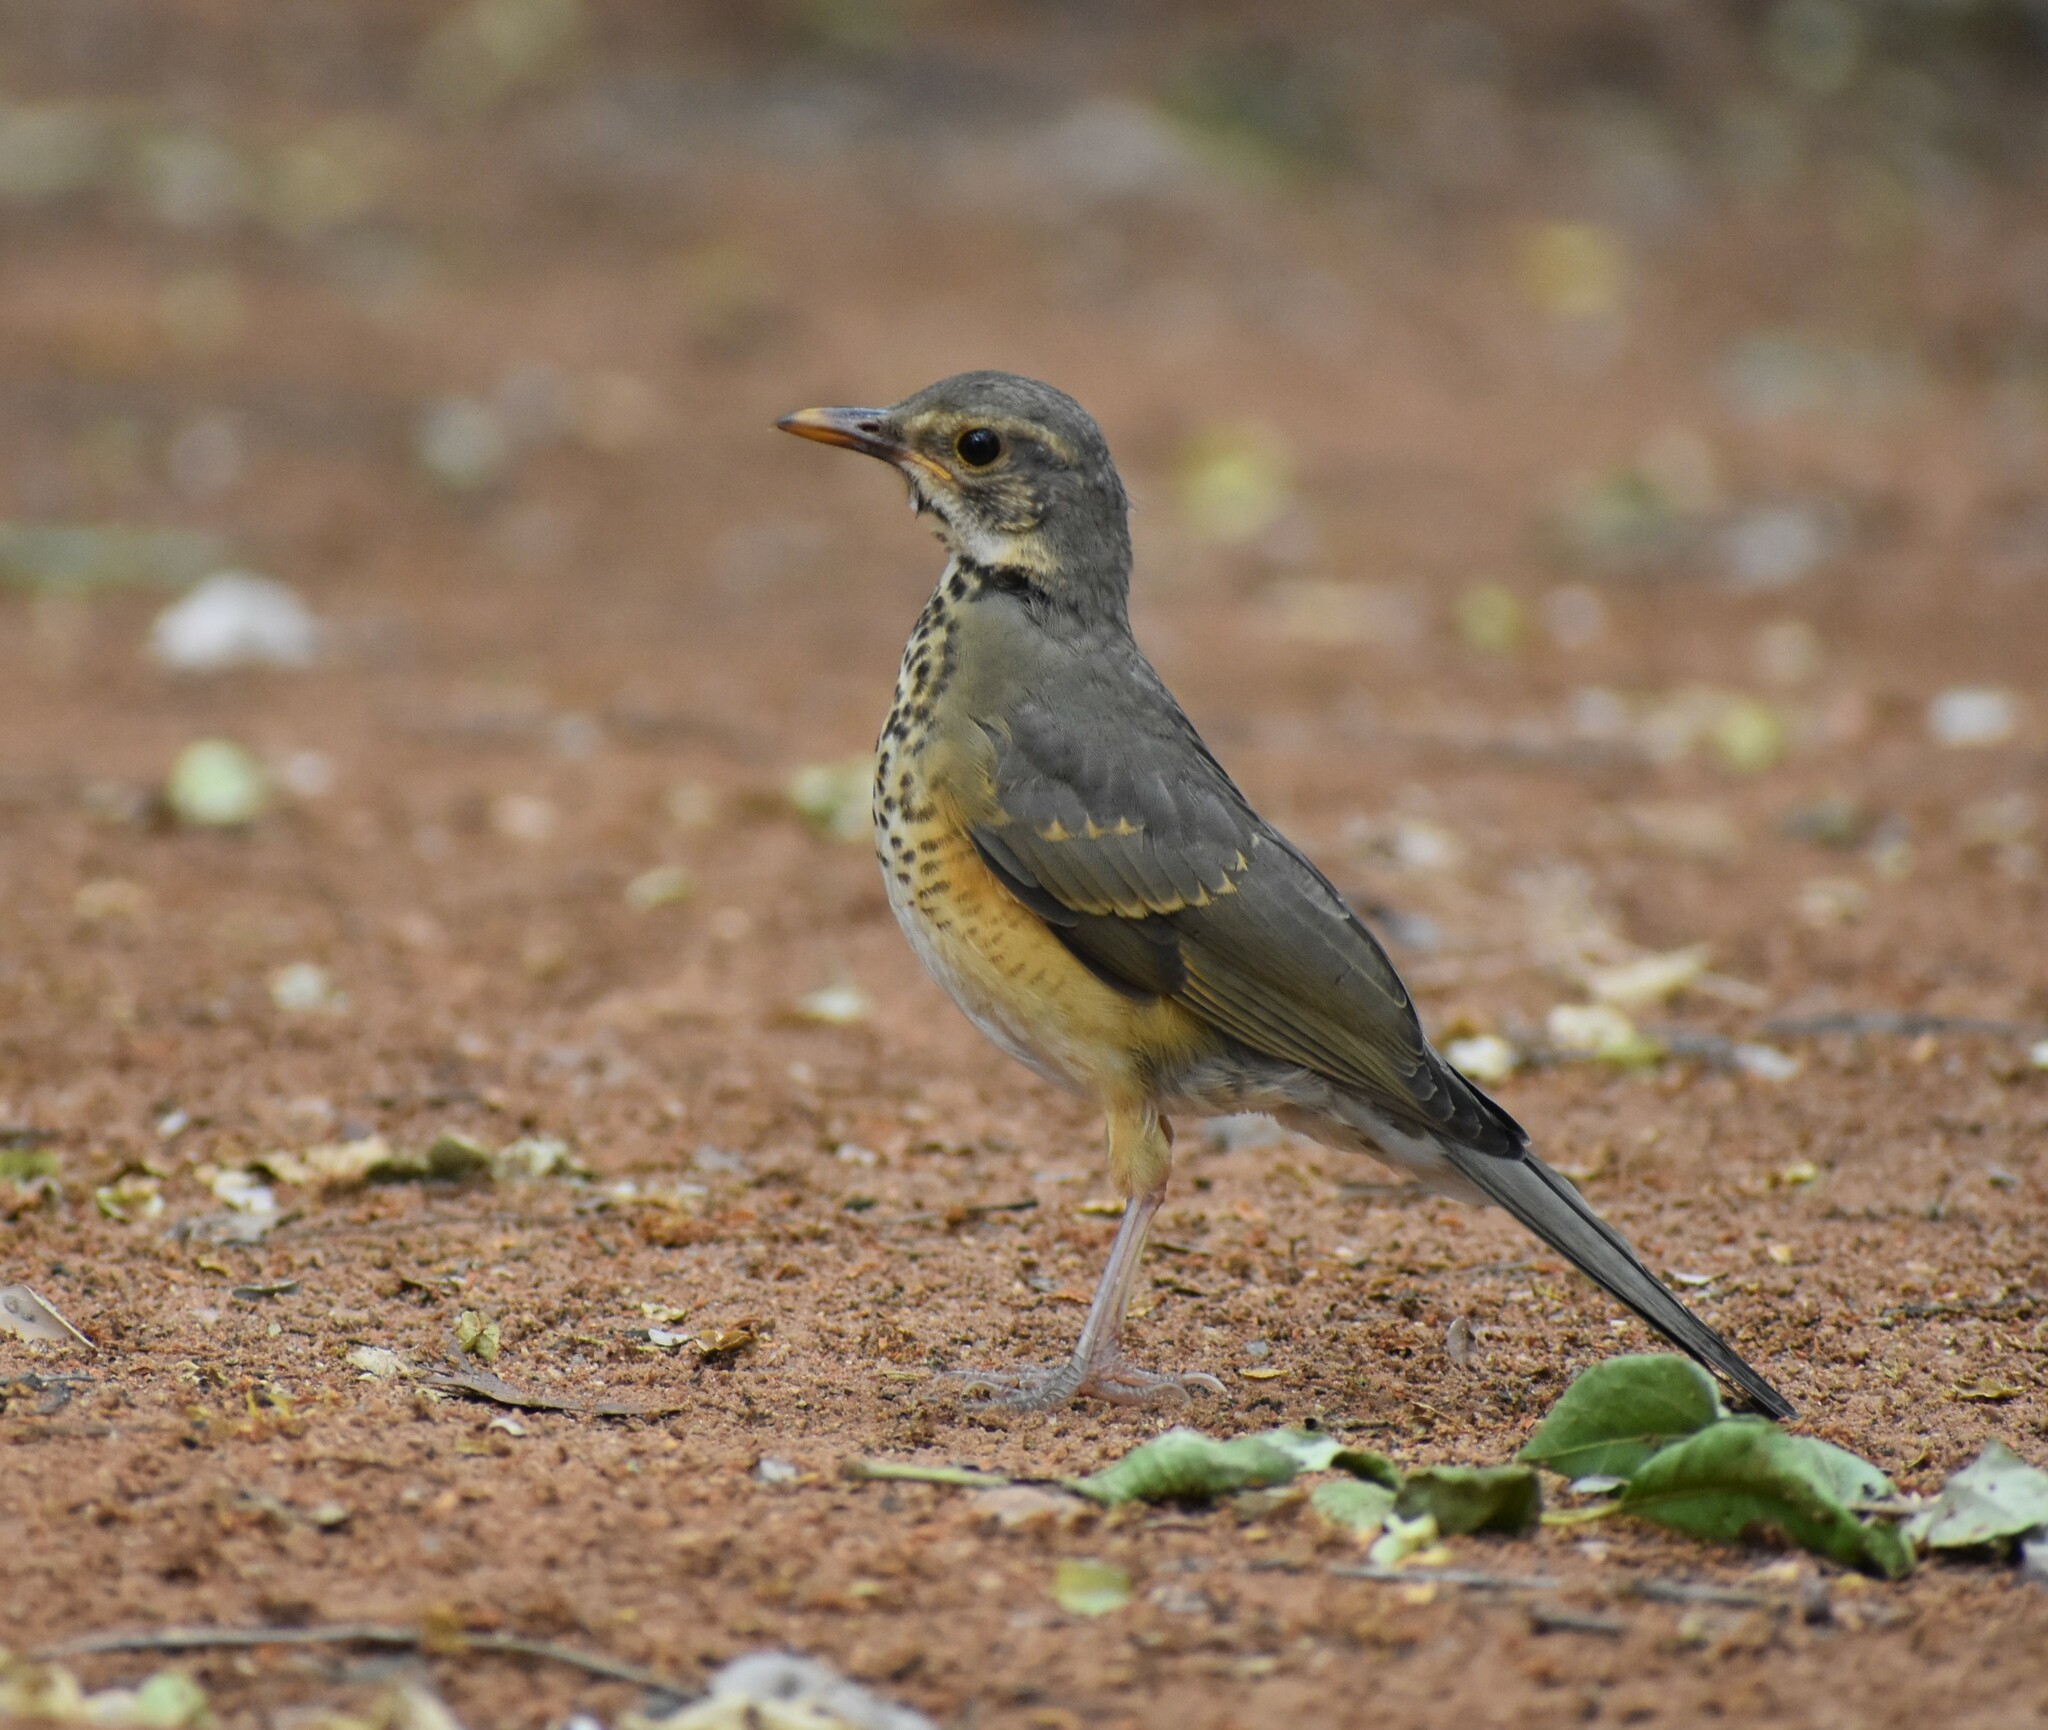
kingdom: Animalia
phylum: Chordata
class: Aves
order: Passeriformes
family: Turdidae
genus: Turdus
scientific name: Turdus libonyana
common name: Kurrichane thrush
